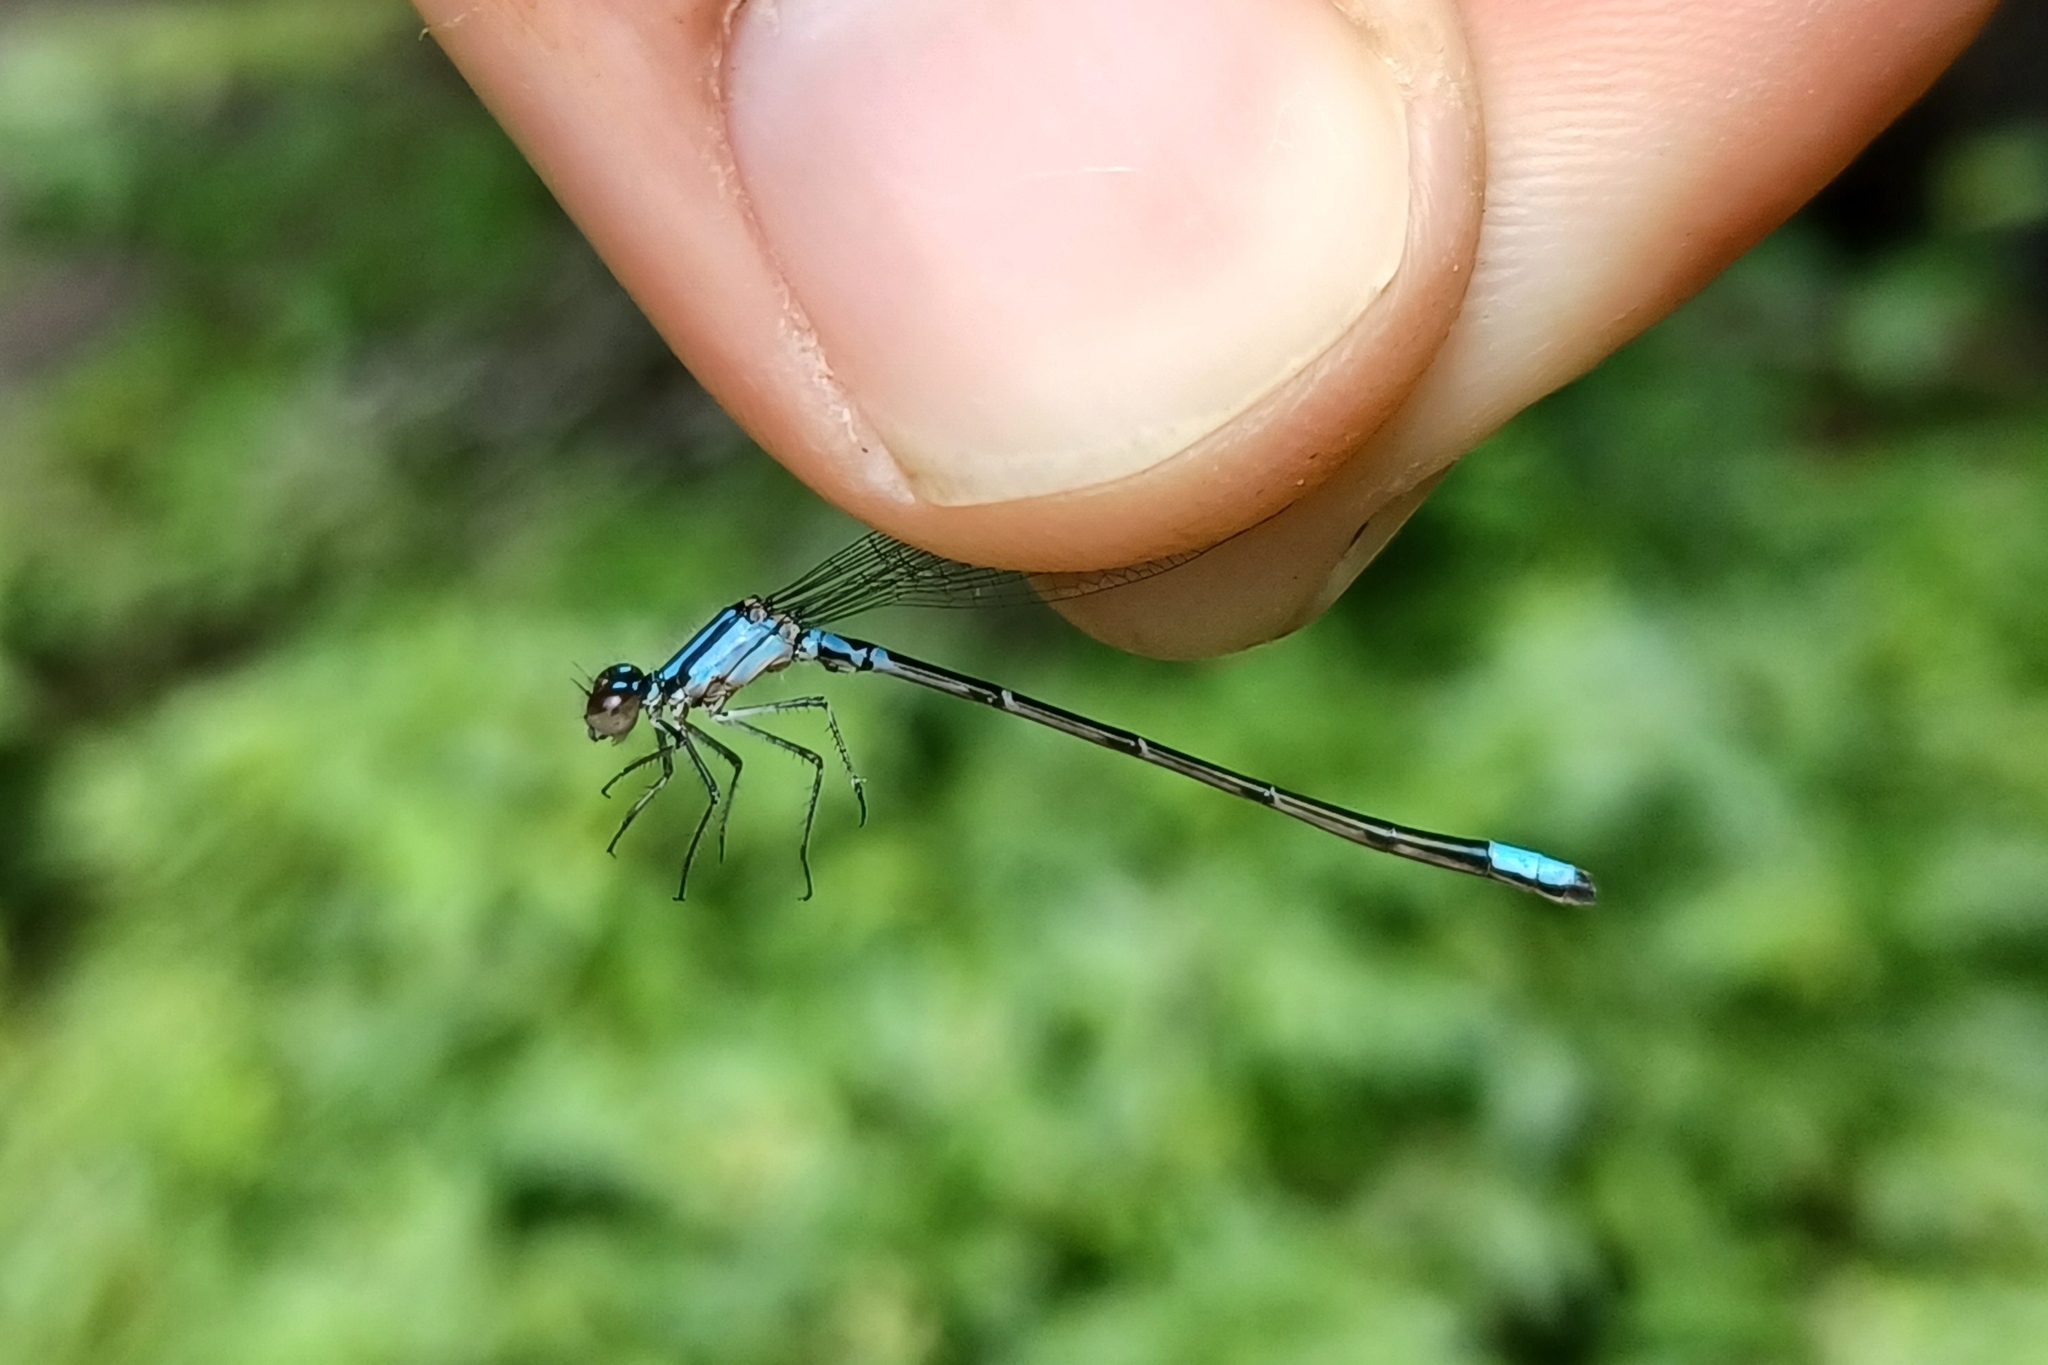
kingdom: Animalia
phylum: Arthropoda
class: Insecta
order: Odonata
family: Coenagrionidae
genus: Enallagma
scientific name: Enallagma geminatum
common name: Skimming bluet
